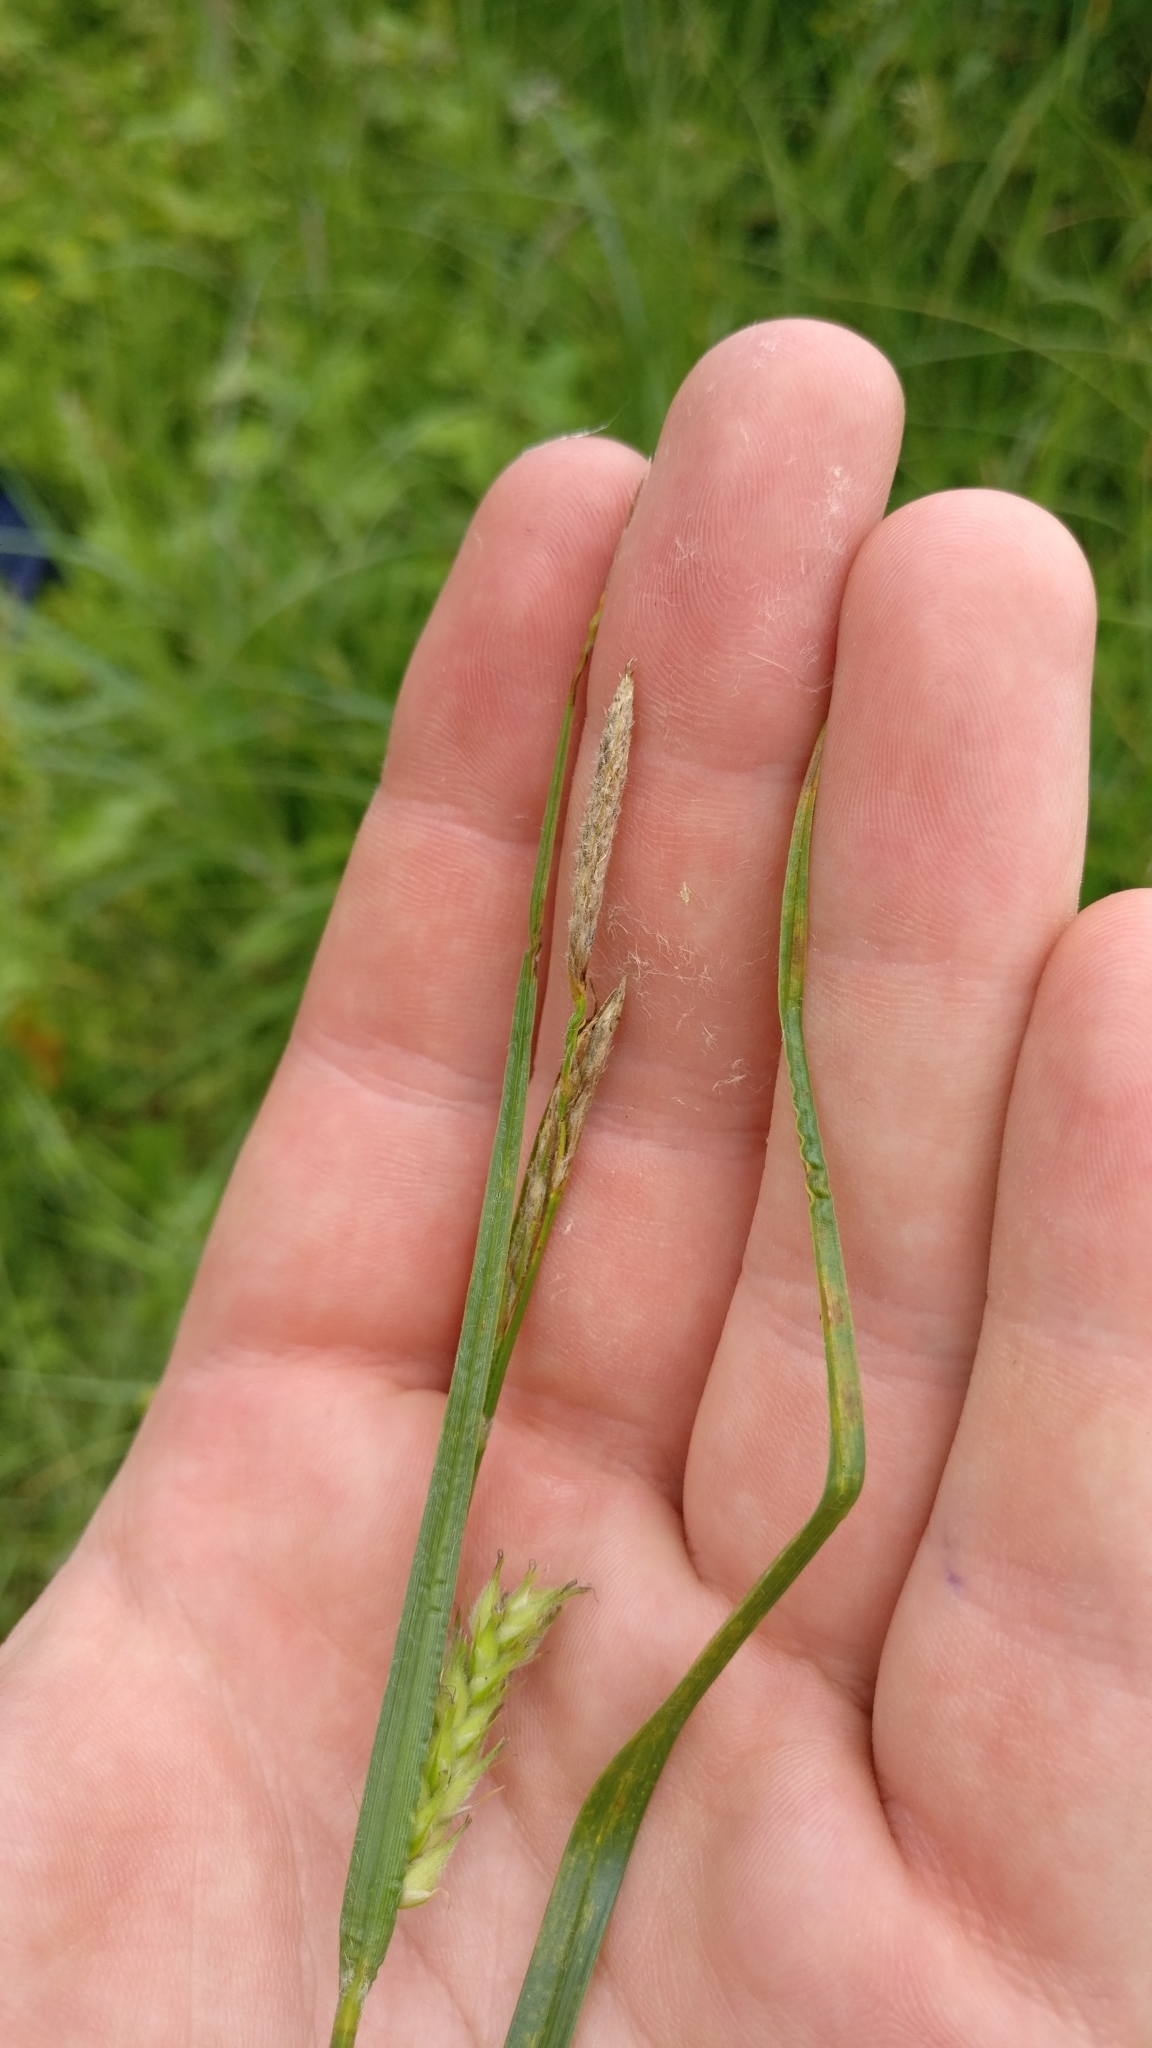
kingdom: Plantae
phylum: Tracheophyta
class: Liliopsida
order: Poales
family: Cyperaceae
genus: Carex
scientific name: Carex hirta
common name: Hairy sedge
